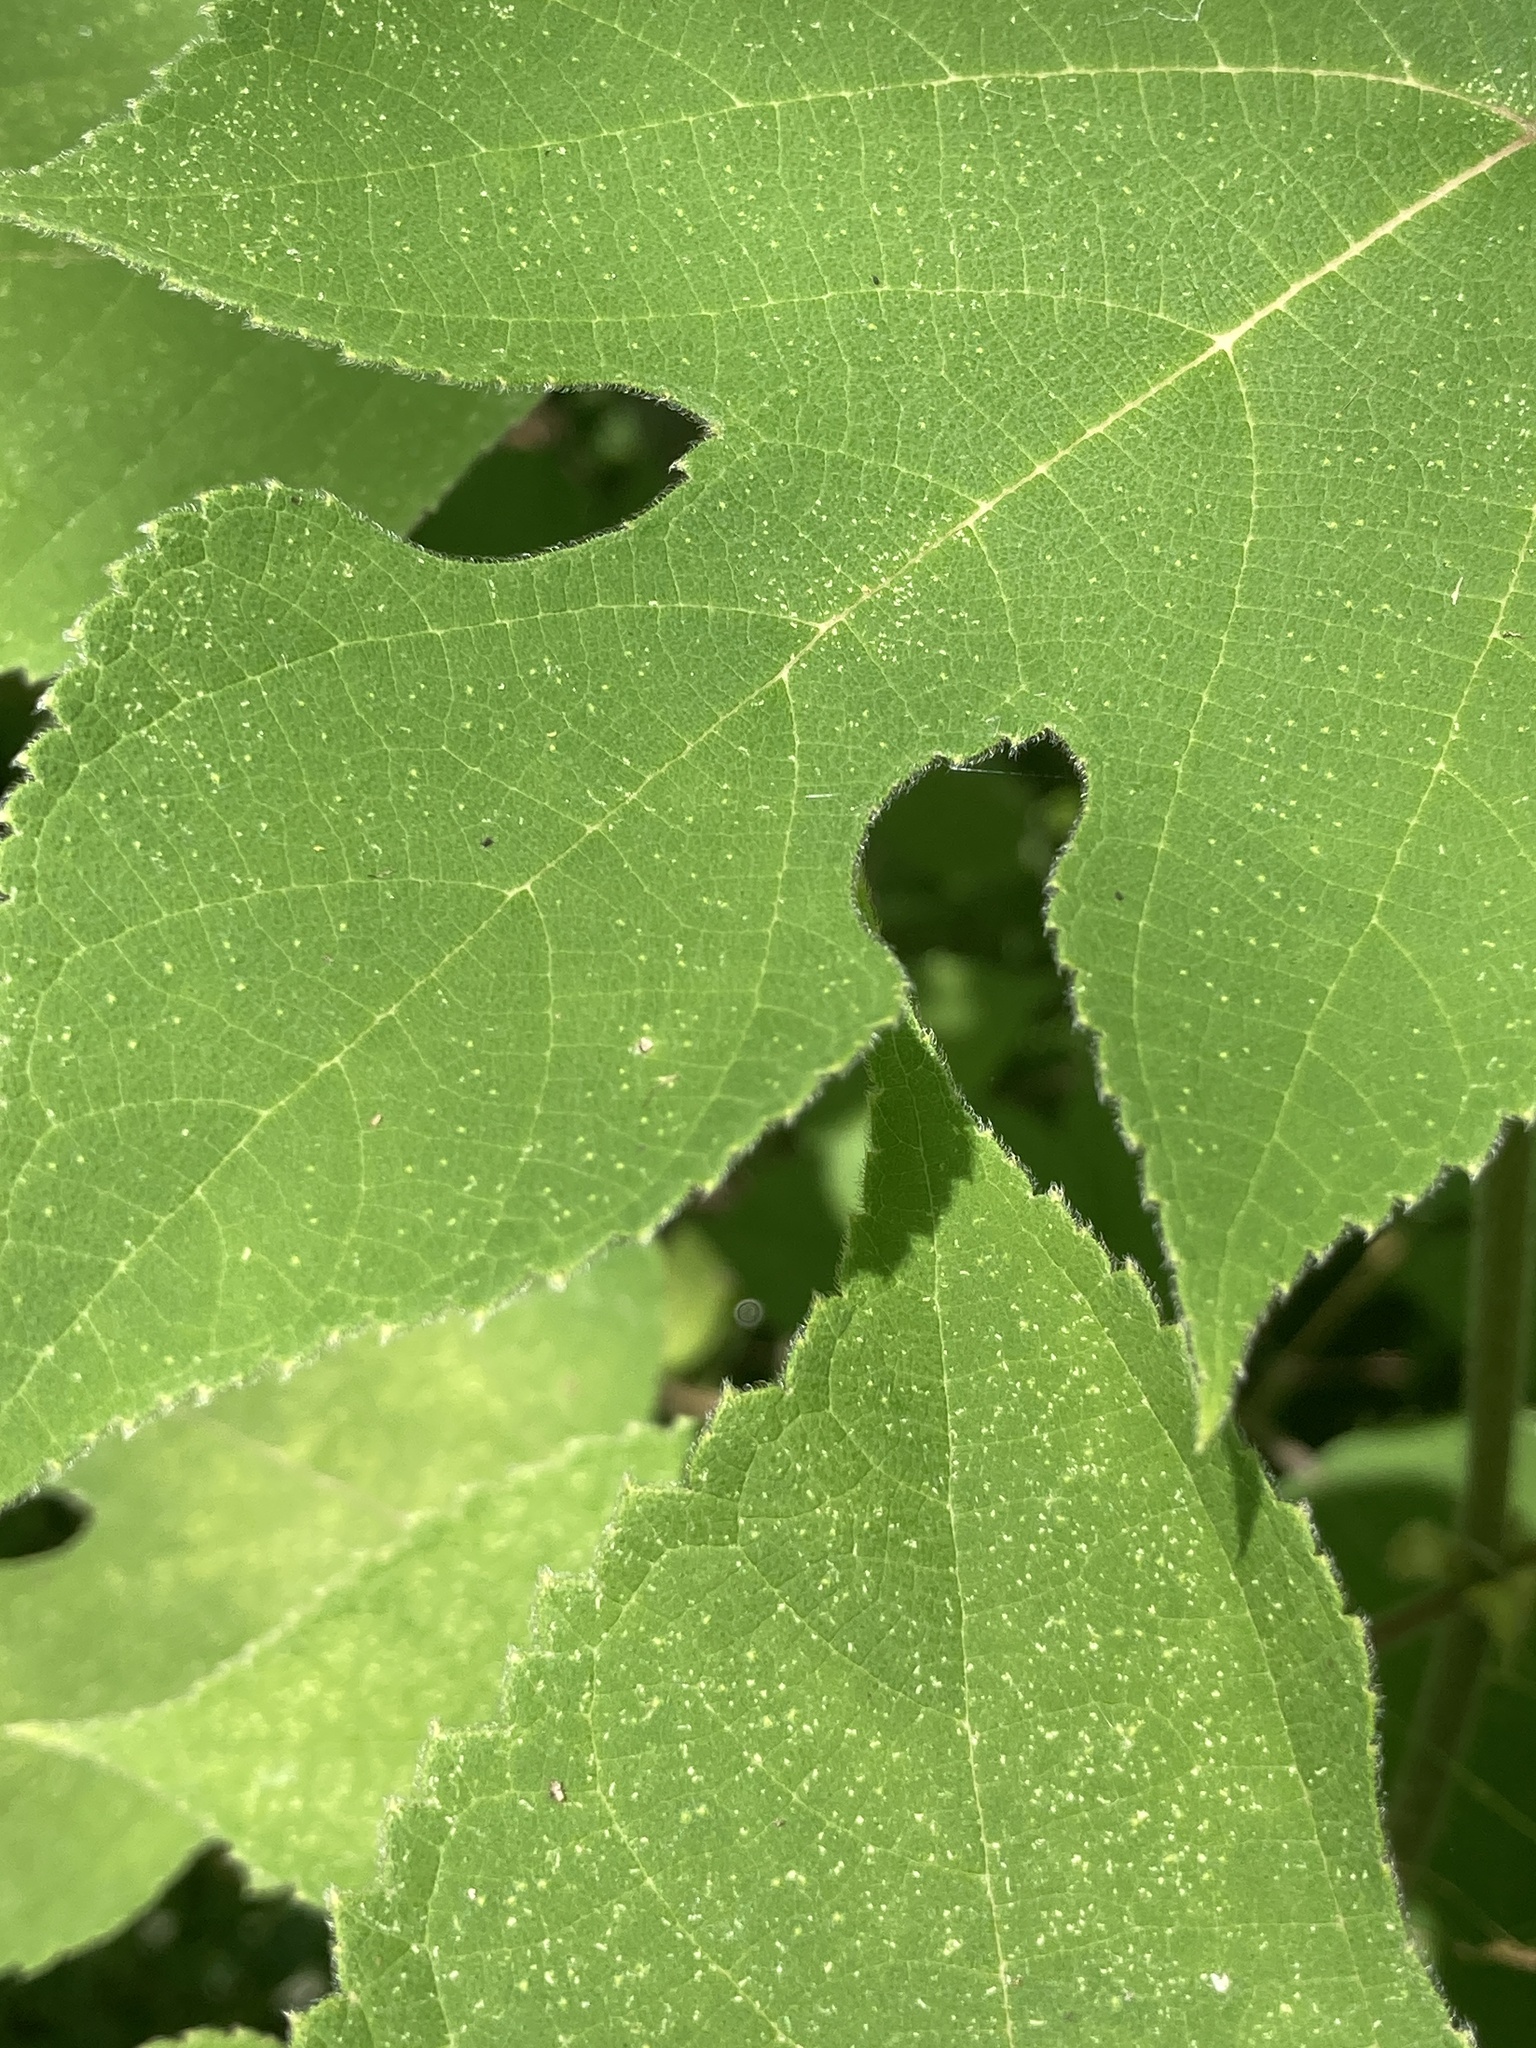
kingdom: Plantae
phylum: Tracheophyta
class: Magnoliopsida
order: Rosales
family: Moraceae
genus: Broussonetia
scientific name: Broussonetia papyrifera
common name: Paper mulberry
